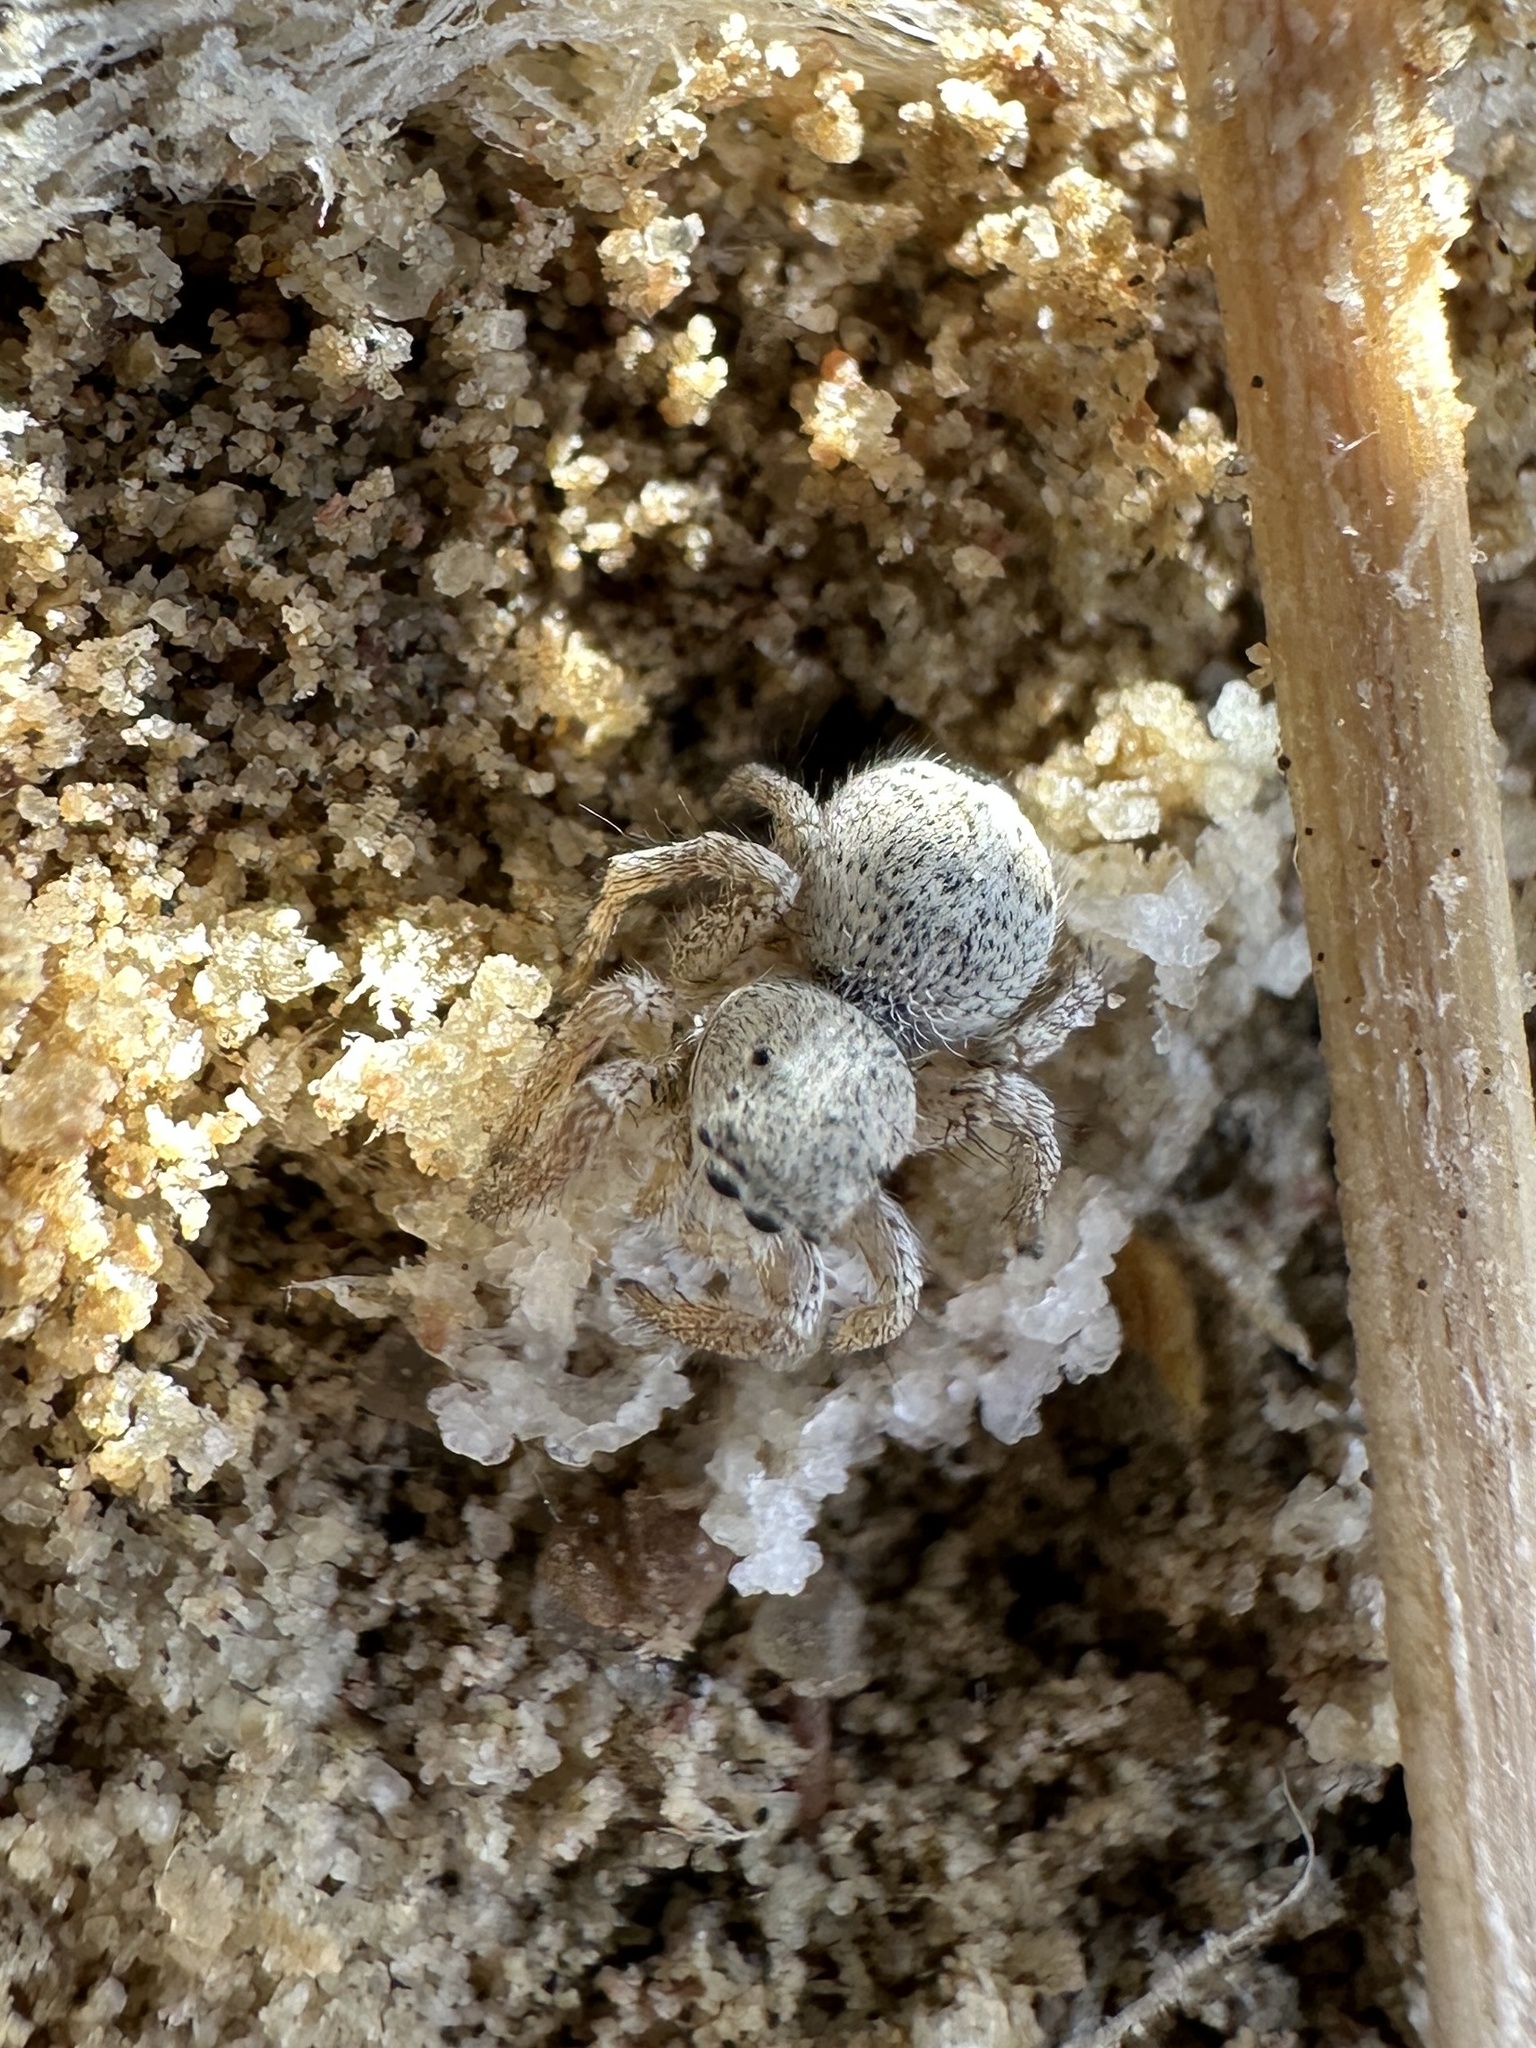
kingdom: Animalia
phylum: Arthropoda
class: Arachnida
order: Araneae
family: Salticidae
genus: Habronattus
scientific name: Habronattus tarsalis
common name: Jumping spider
